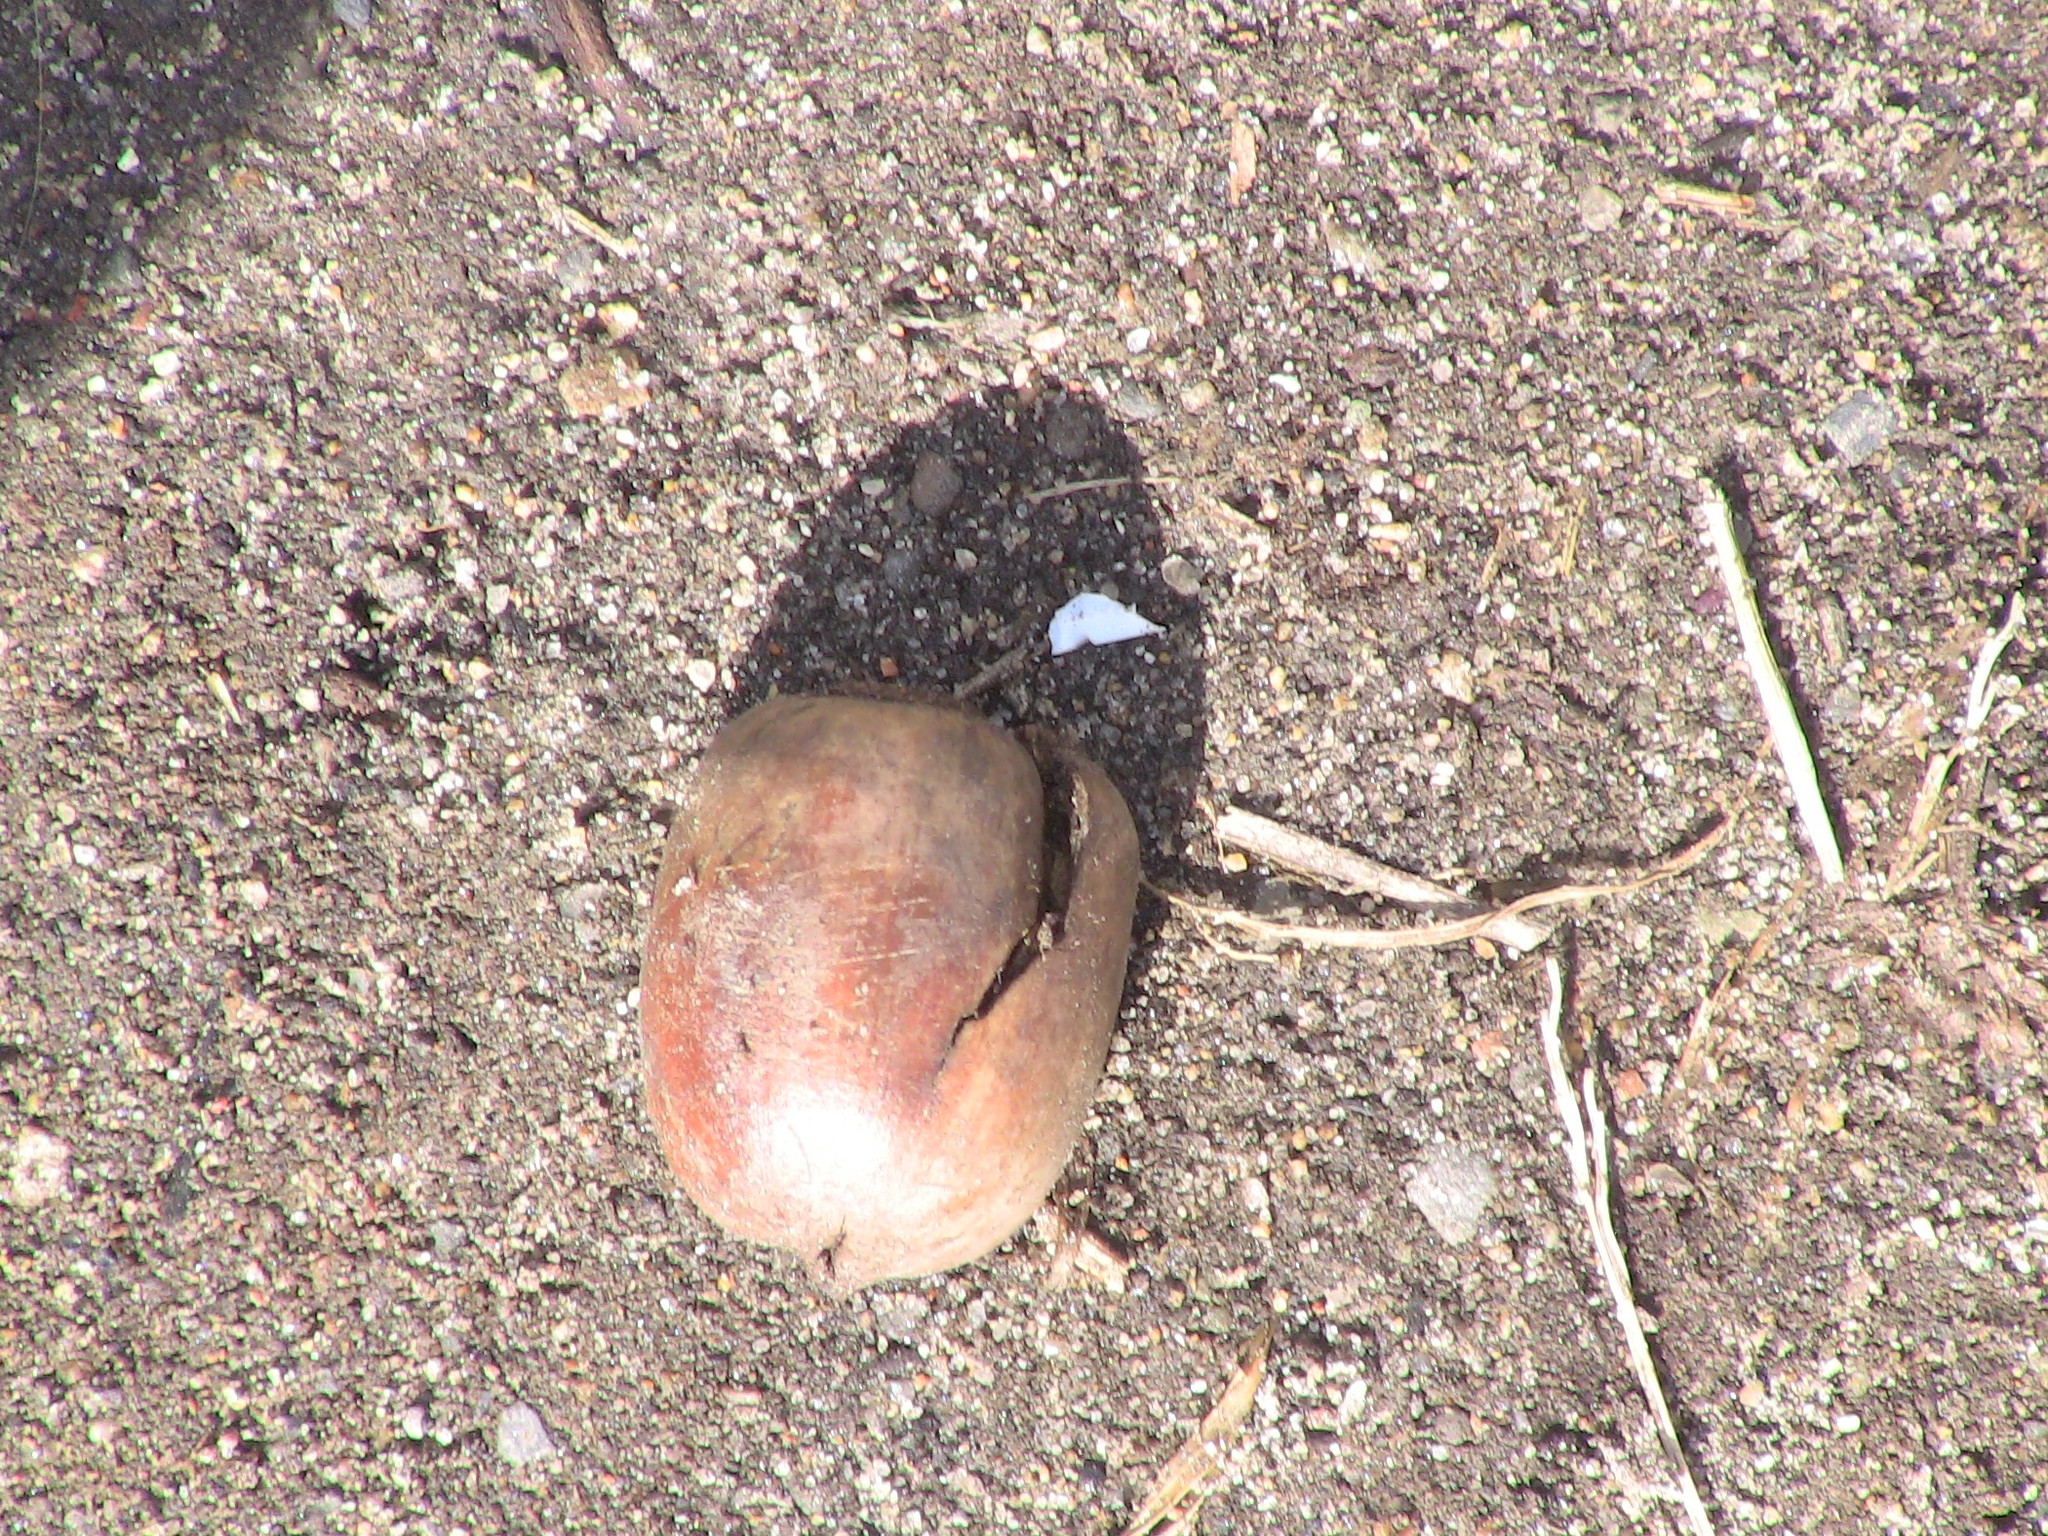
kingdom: Plantae
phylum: Tracheophyta
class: Magnoliopsida
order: Fagales
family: Fagaceae
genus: Quercus
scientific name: Quercus
